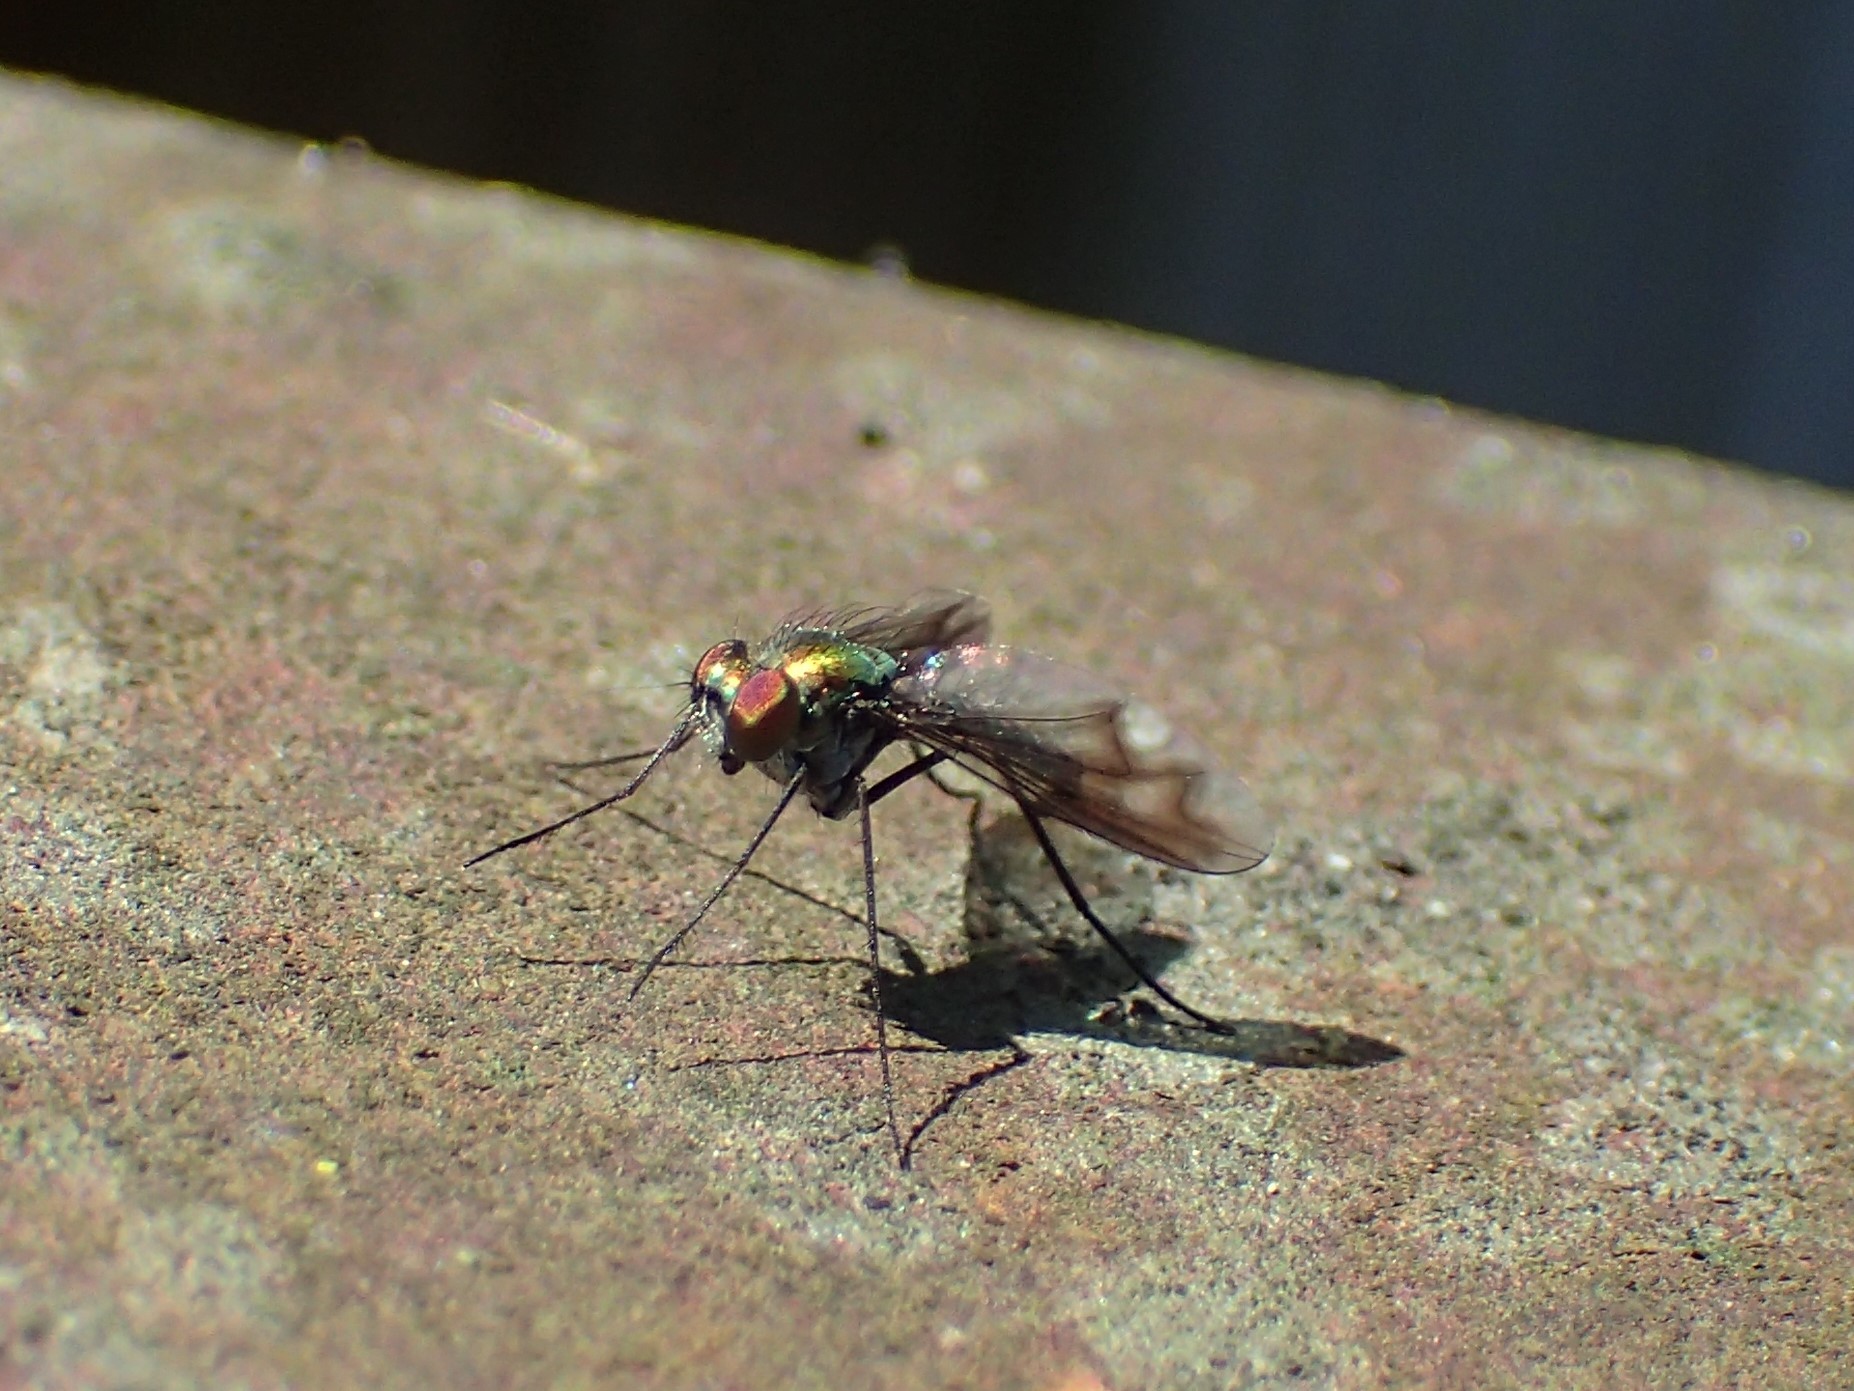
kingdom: Animalia
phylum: Arthropoda
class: Insecta
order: Diptera
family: Dolichopodidae
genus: Condylostylus
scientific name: Condylostylus patibulatus
